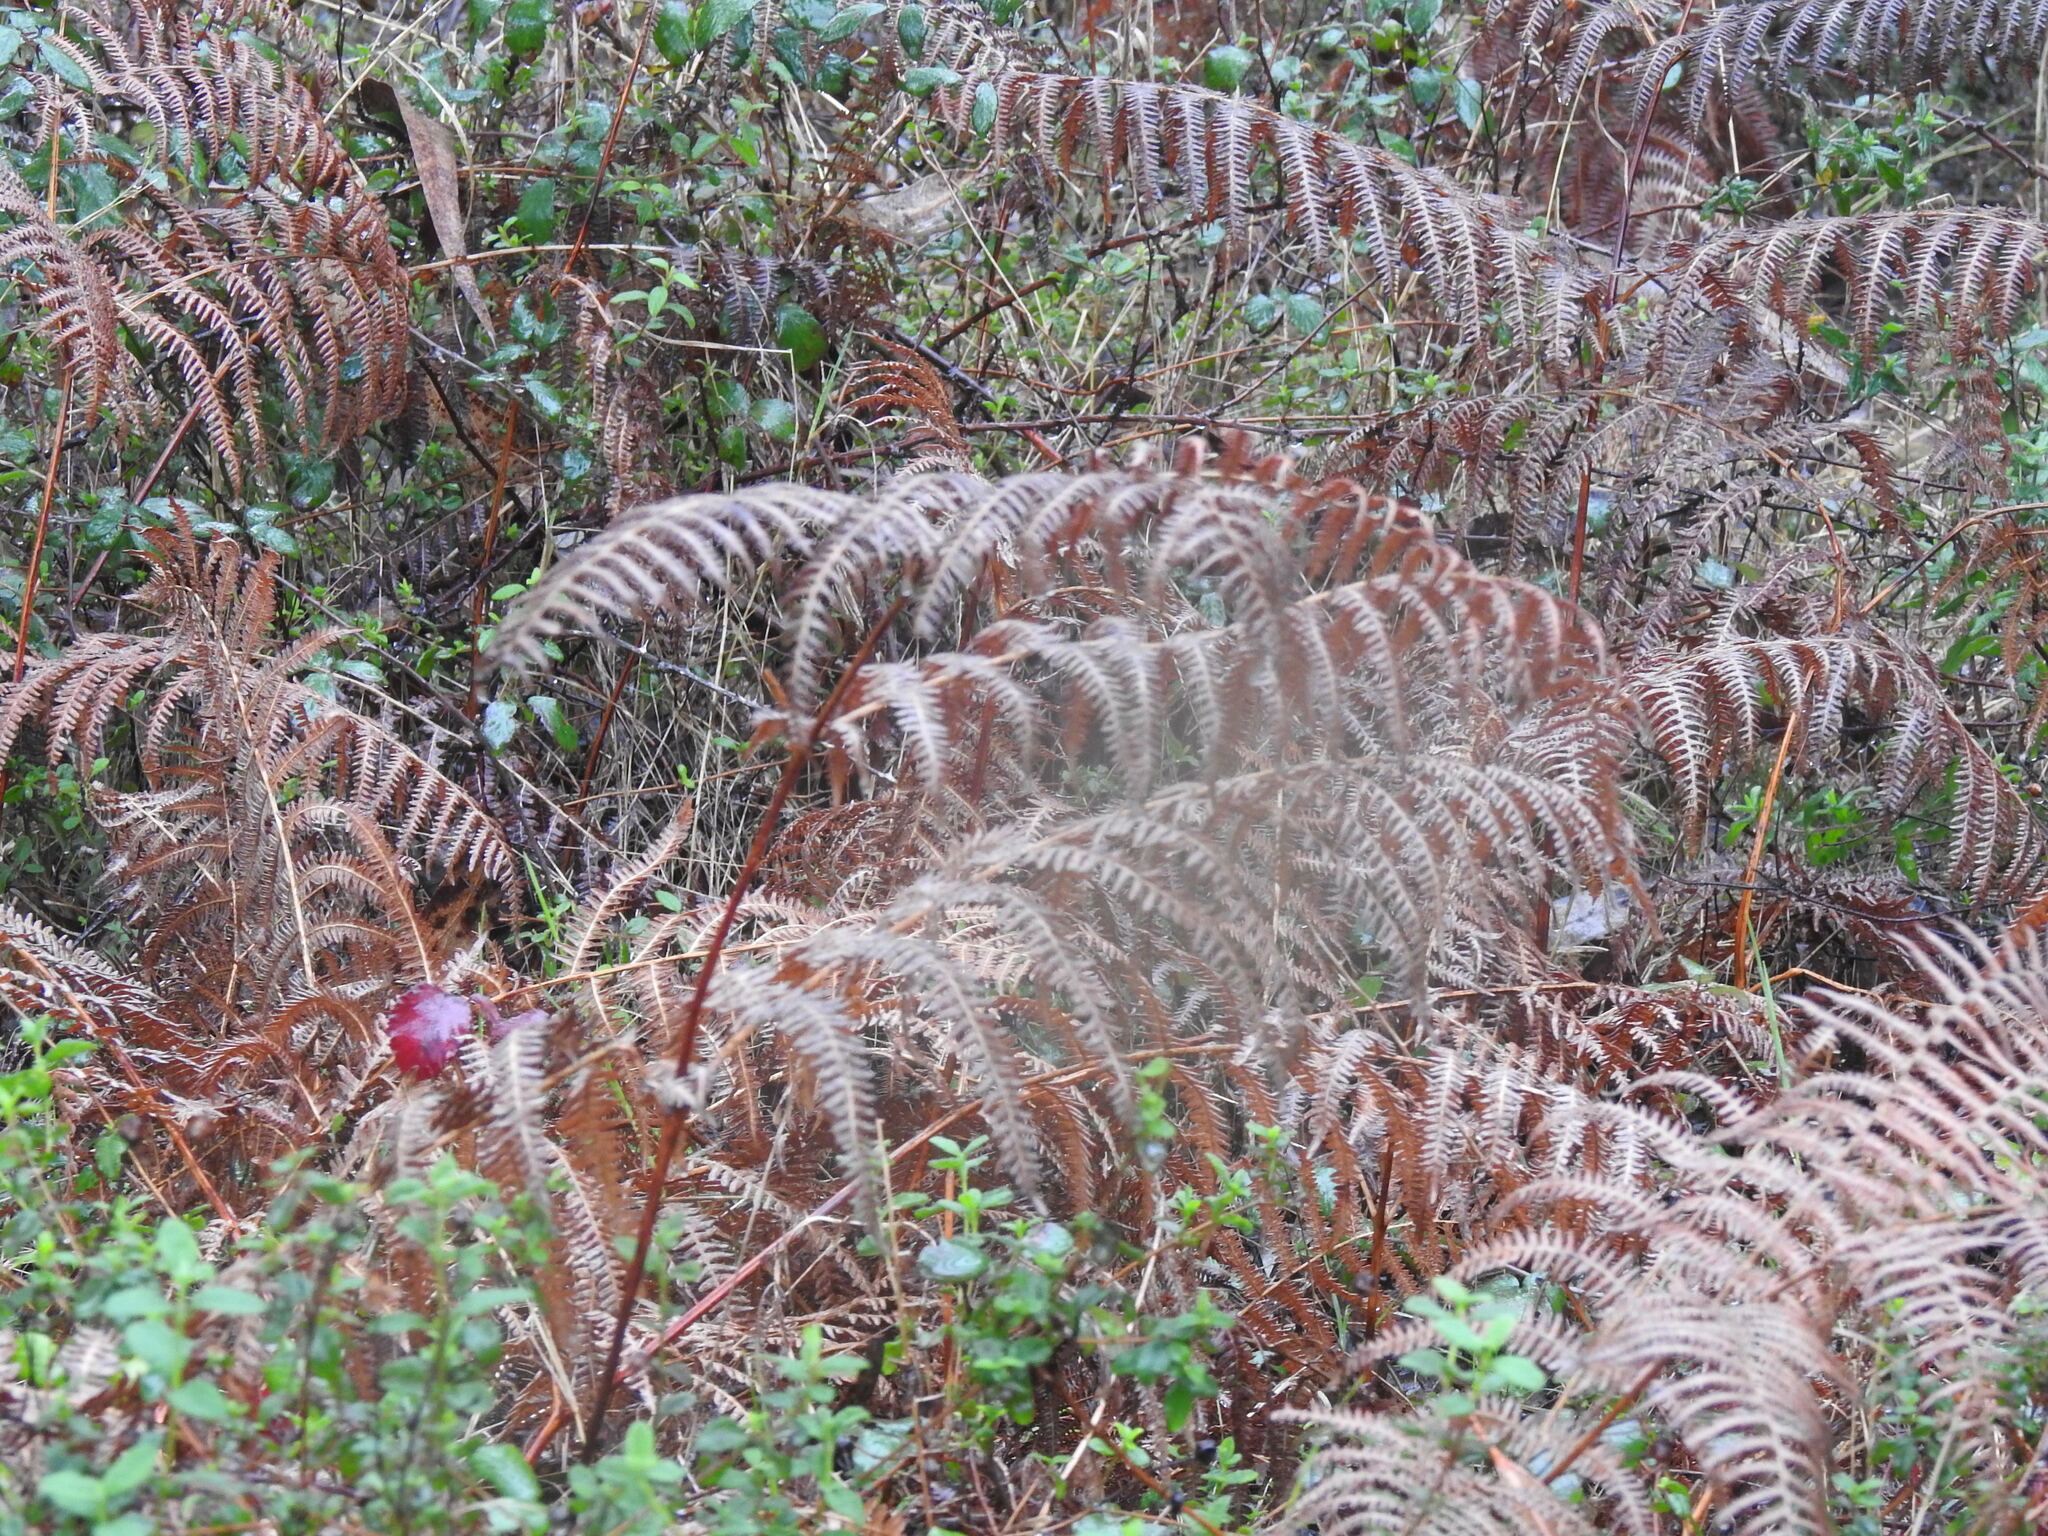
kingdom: Plantae
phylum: Tracheophyta
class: Polypodiopsida
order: Polypodiales
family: Dennstaedtiaceae
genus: Pteridium
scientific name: Pteridium aquilinum
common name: Bracken
